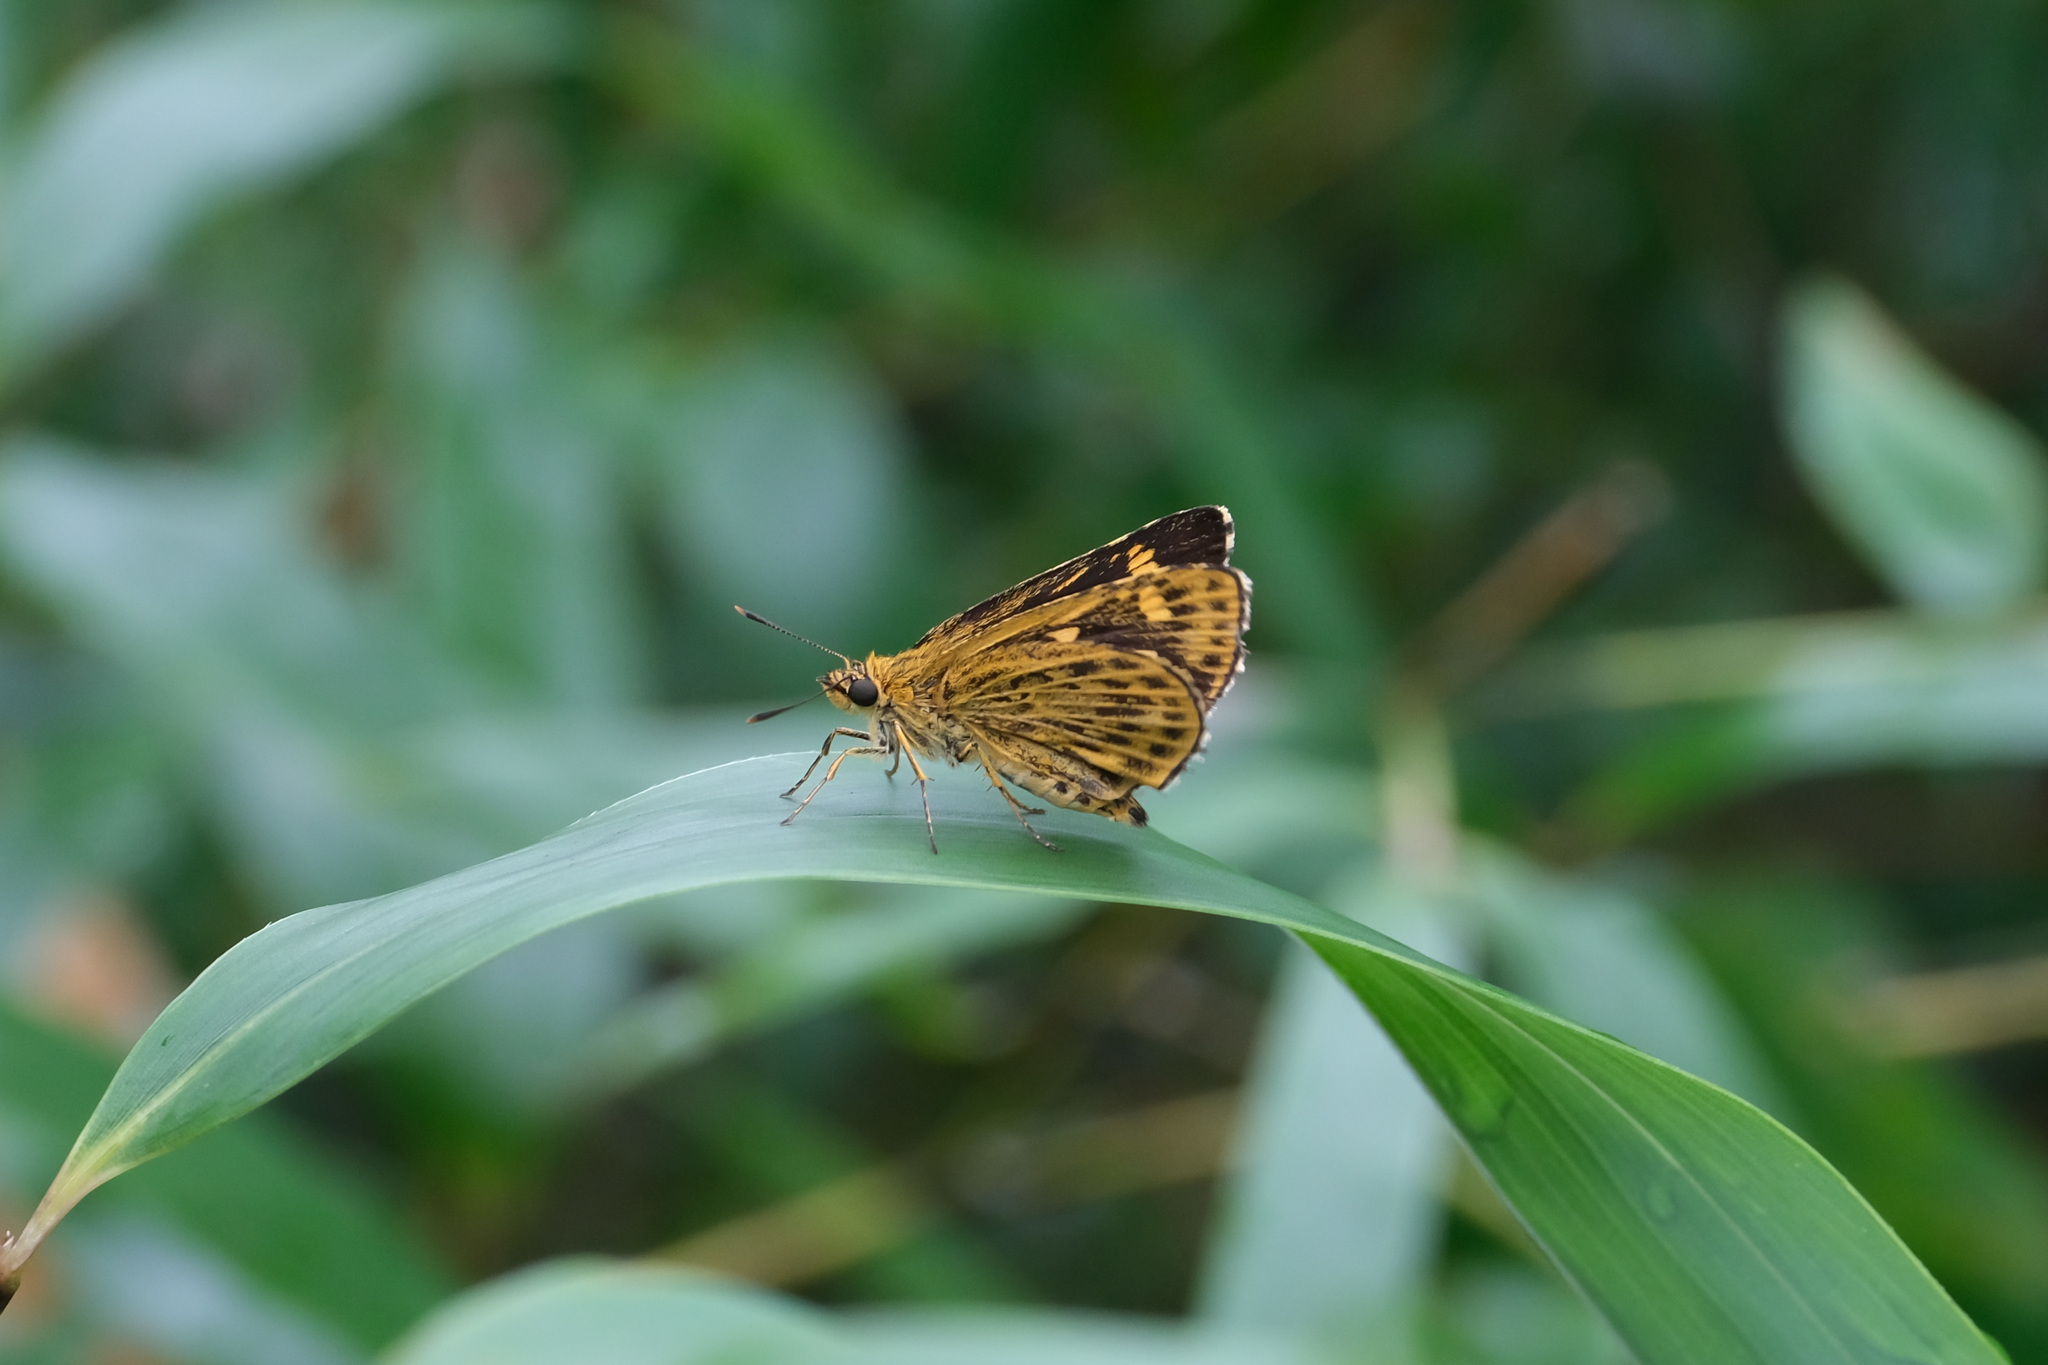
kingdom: Animalia
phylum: Arthropoda
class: Insecta
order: Lepidoptera
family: Hesperiidae
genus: Ampittia
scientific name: Ampittia dioscorides
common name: Common bush hopper
